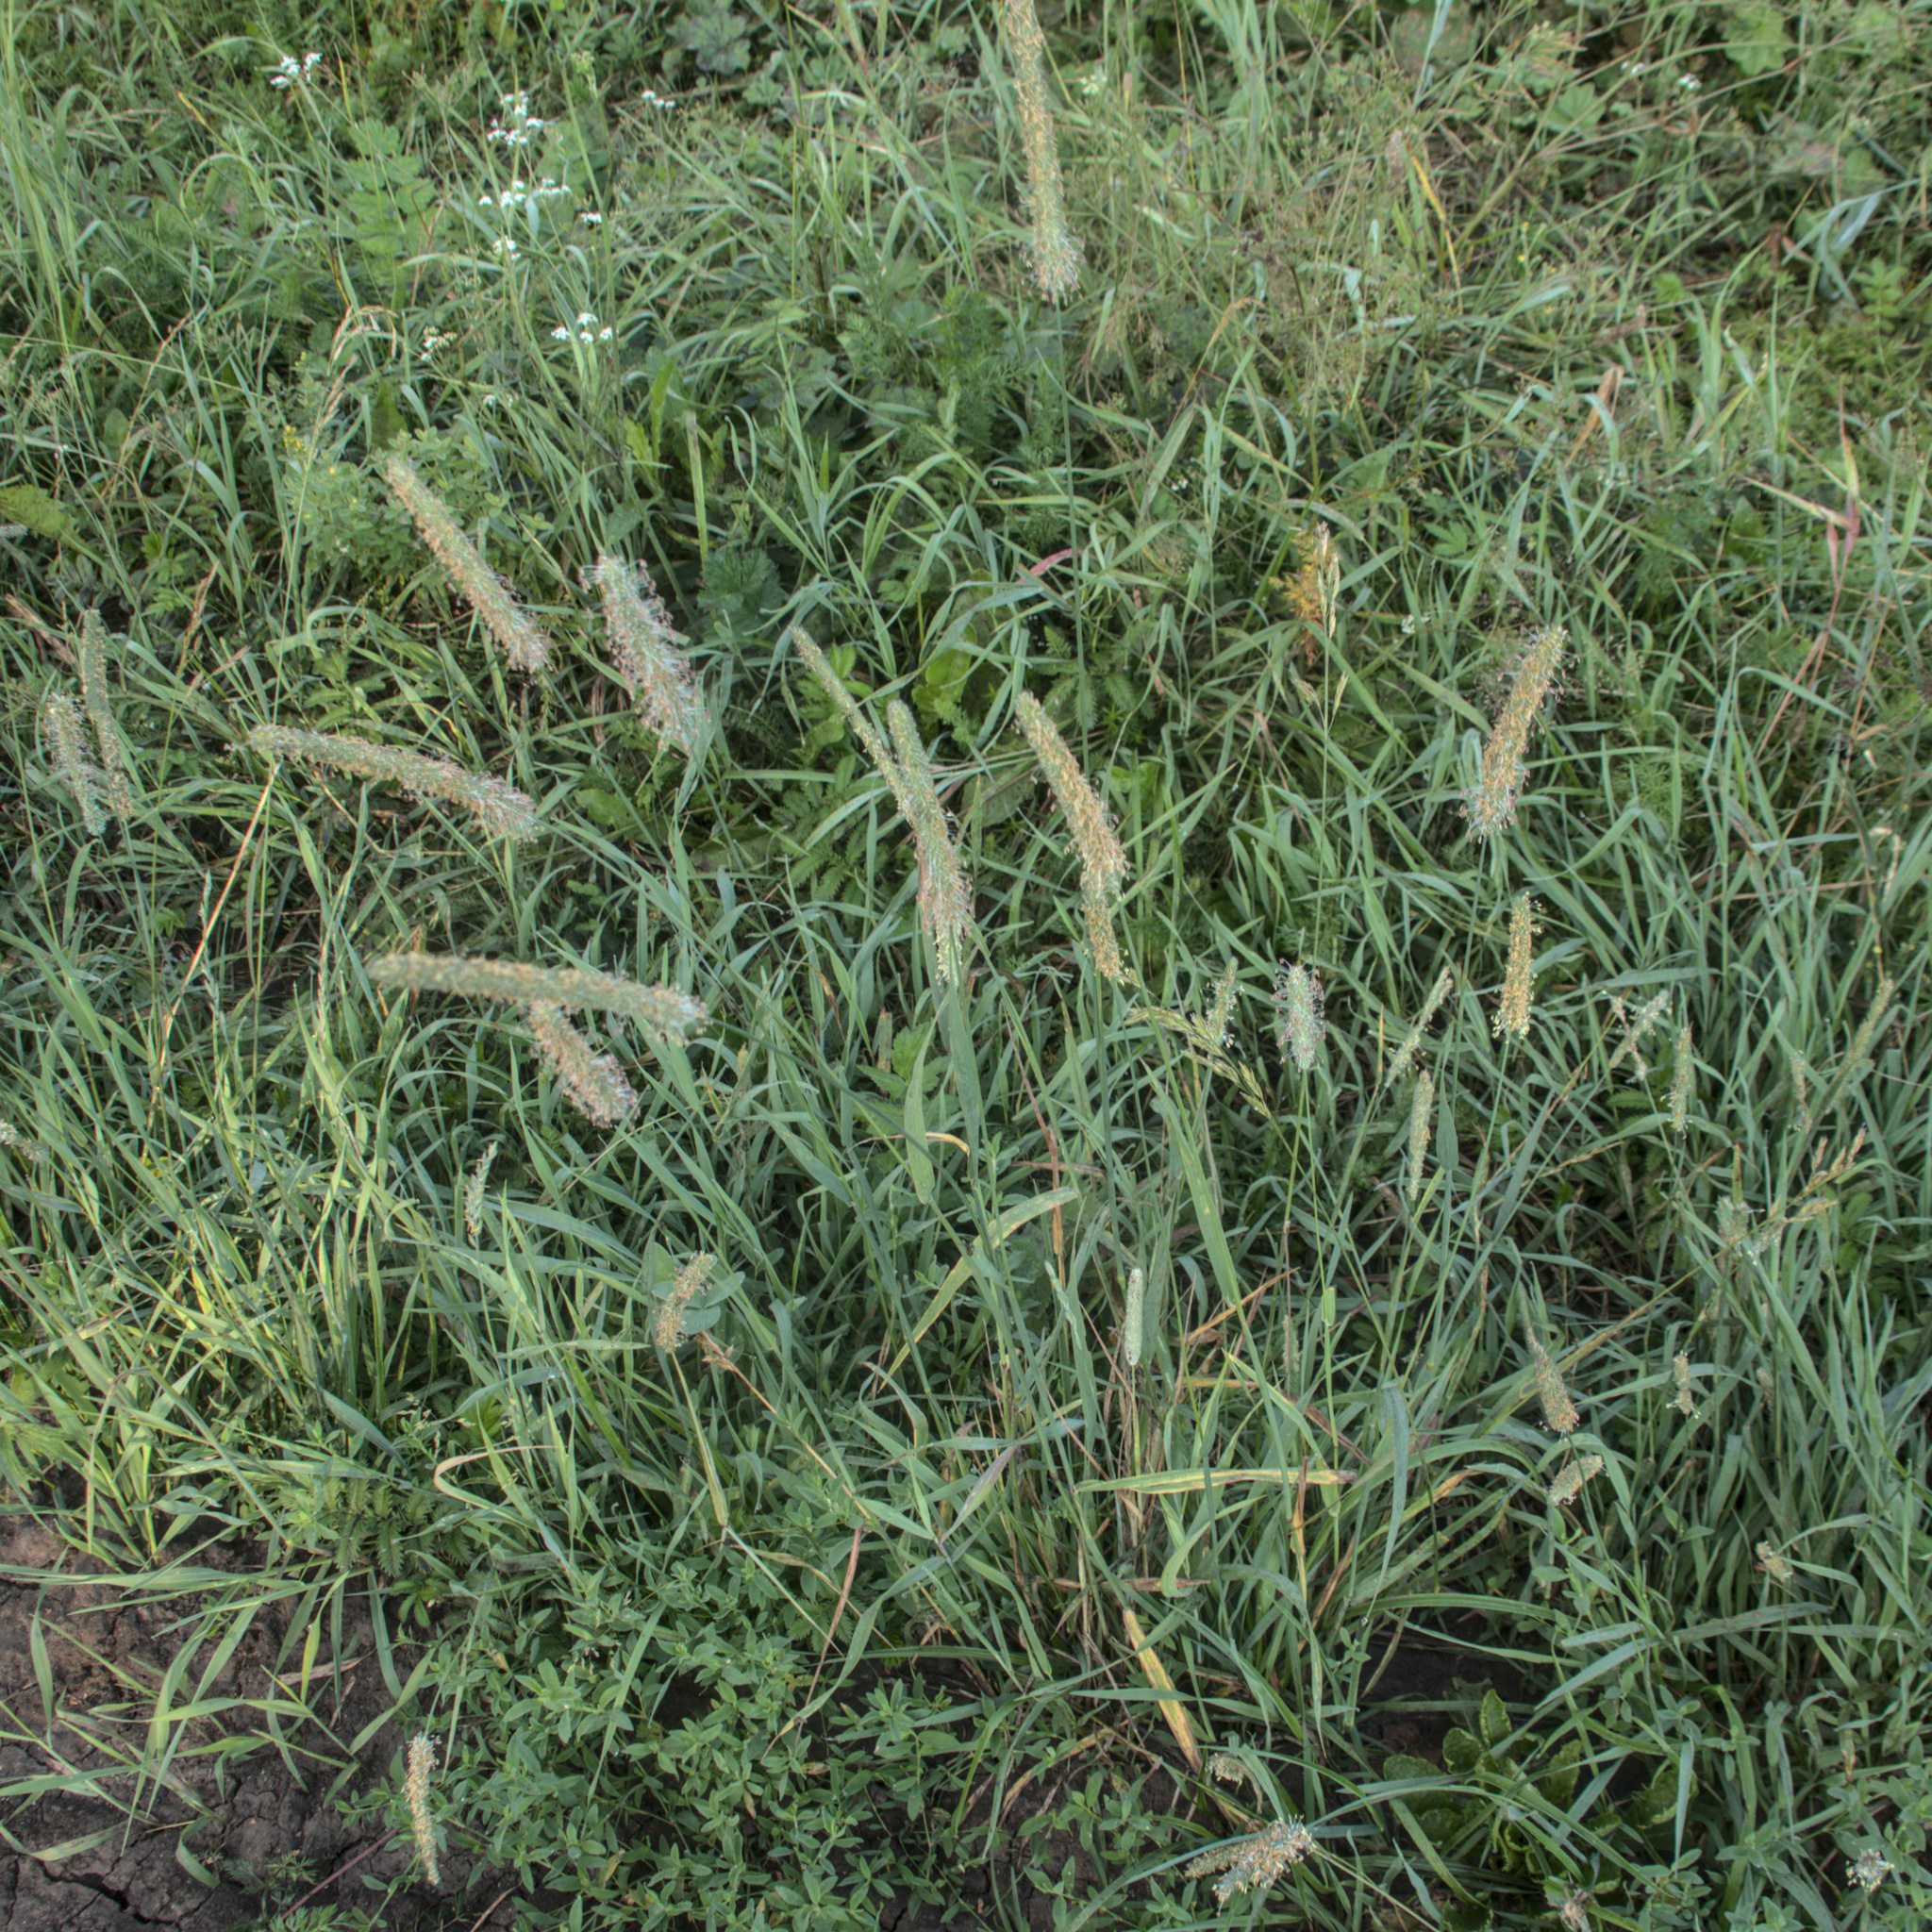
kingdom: Plantae
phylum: Tracheophyta
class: Liliopsida
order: Poales
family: Poaceae
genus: Phleum
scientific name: Phleum pratense
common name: Timothy grass
